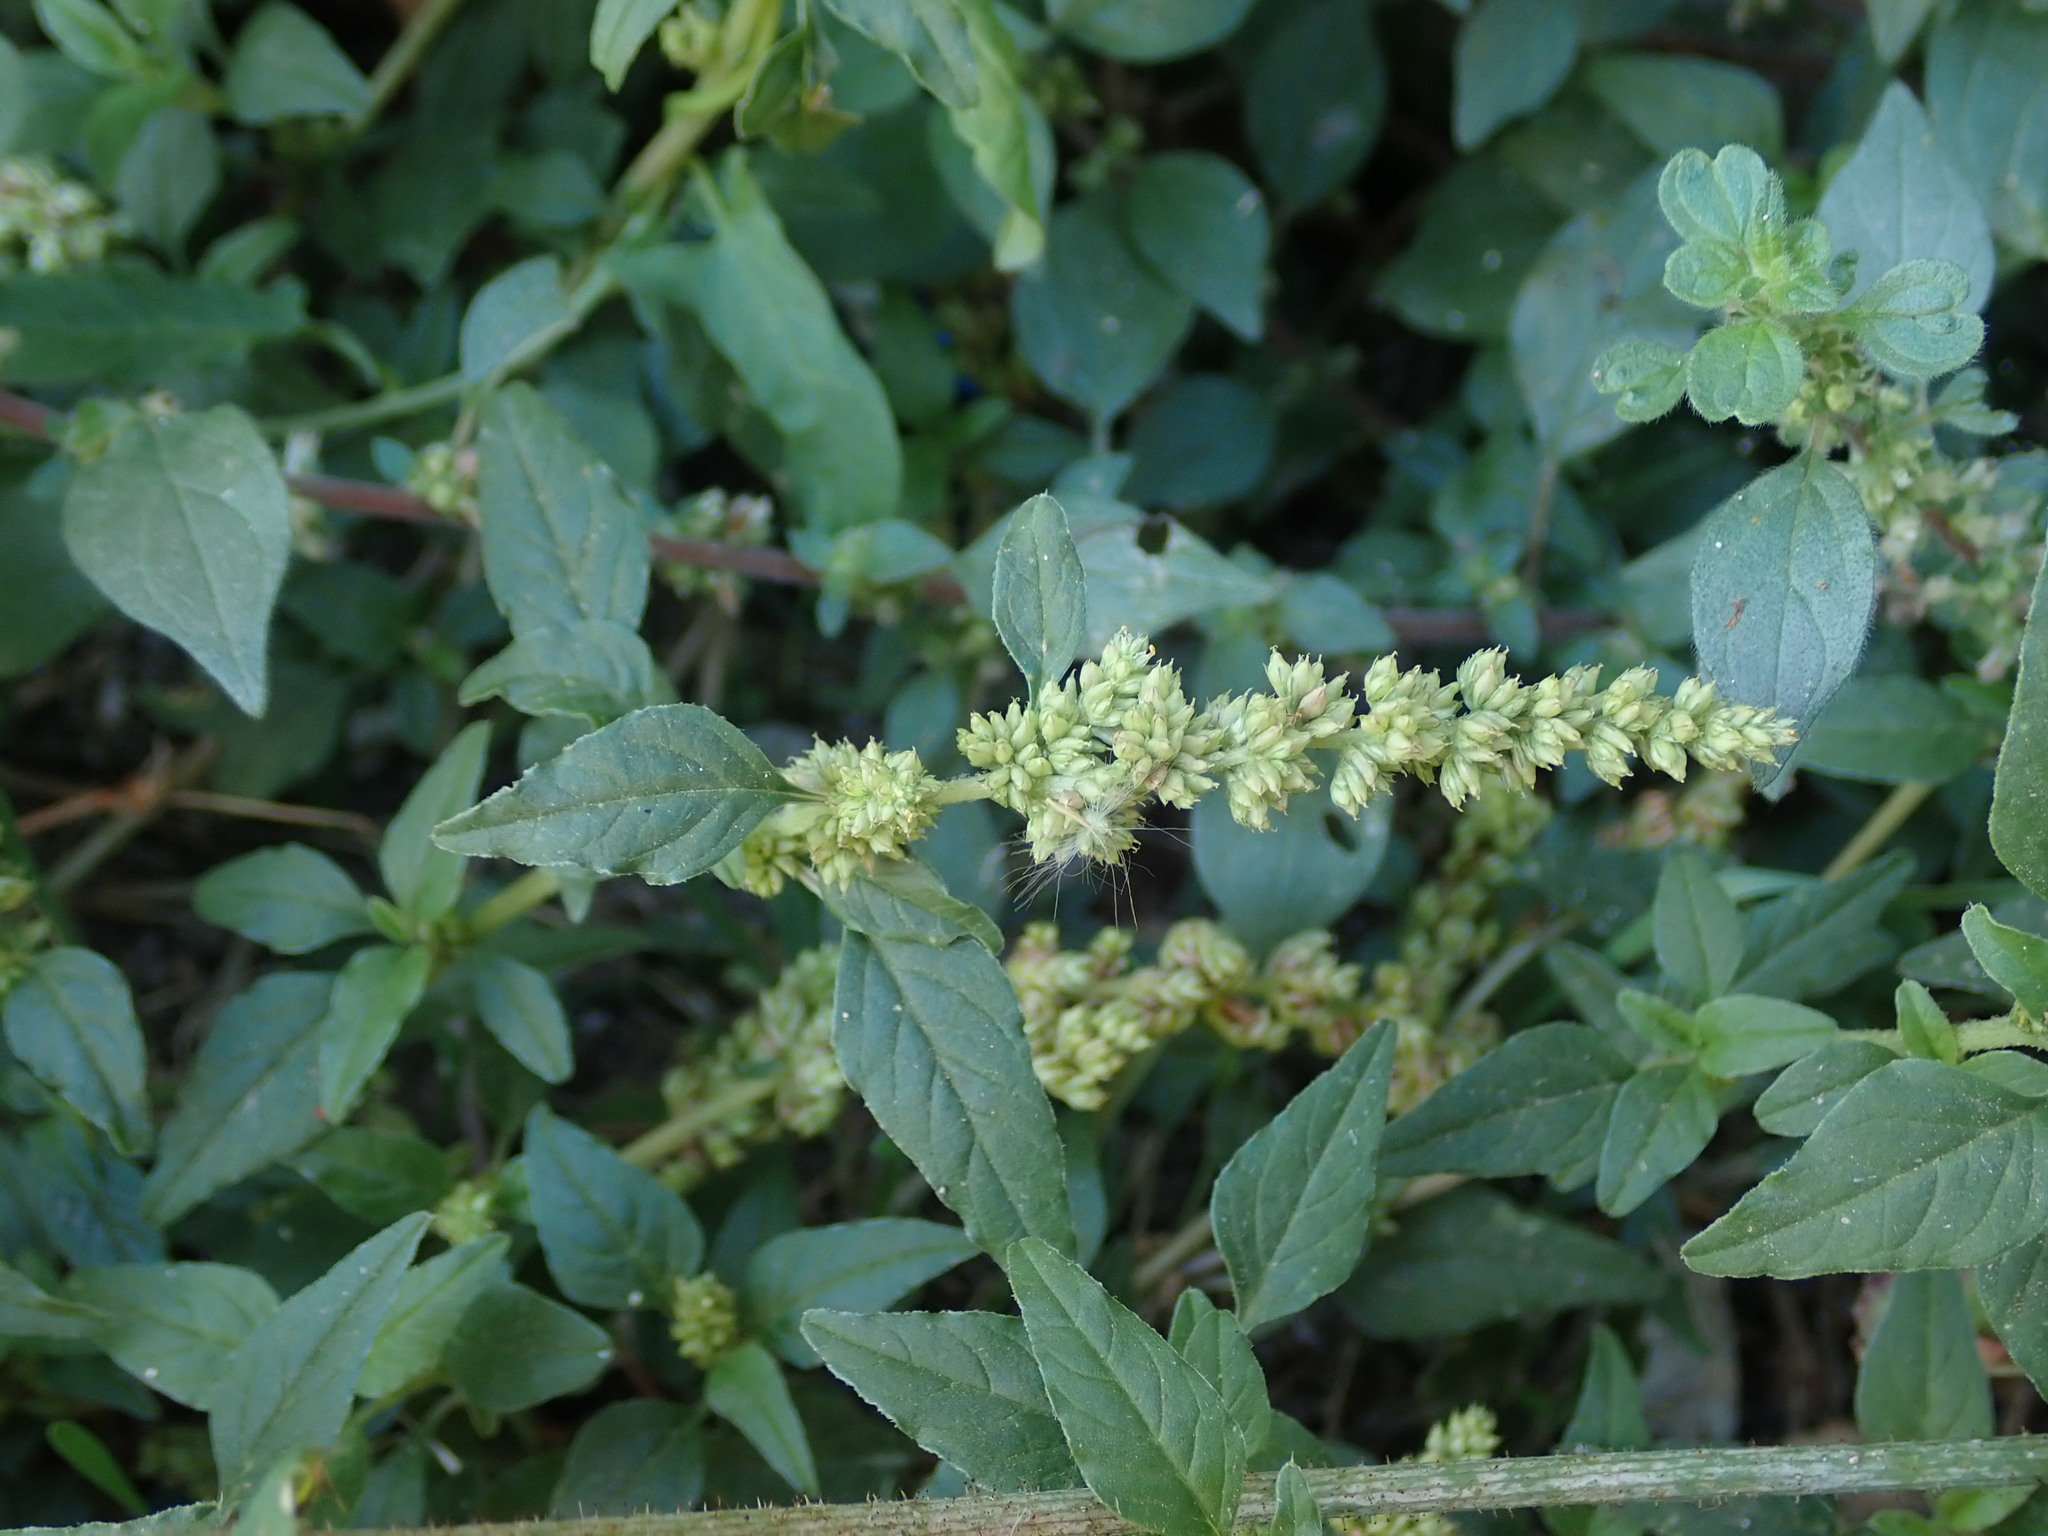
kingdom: Plantae
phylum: Tracheophyta
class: Magnoliopsida
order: Caryophyllales
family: Amaranthaceae
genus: Amaranthus
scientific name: Amaranthus deflexus
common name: Perennial pigweed
